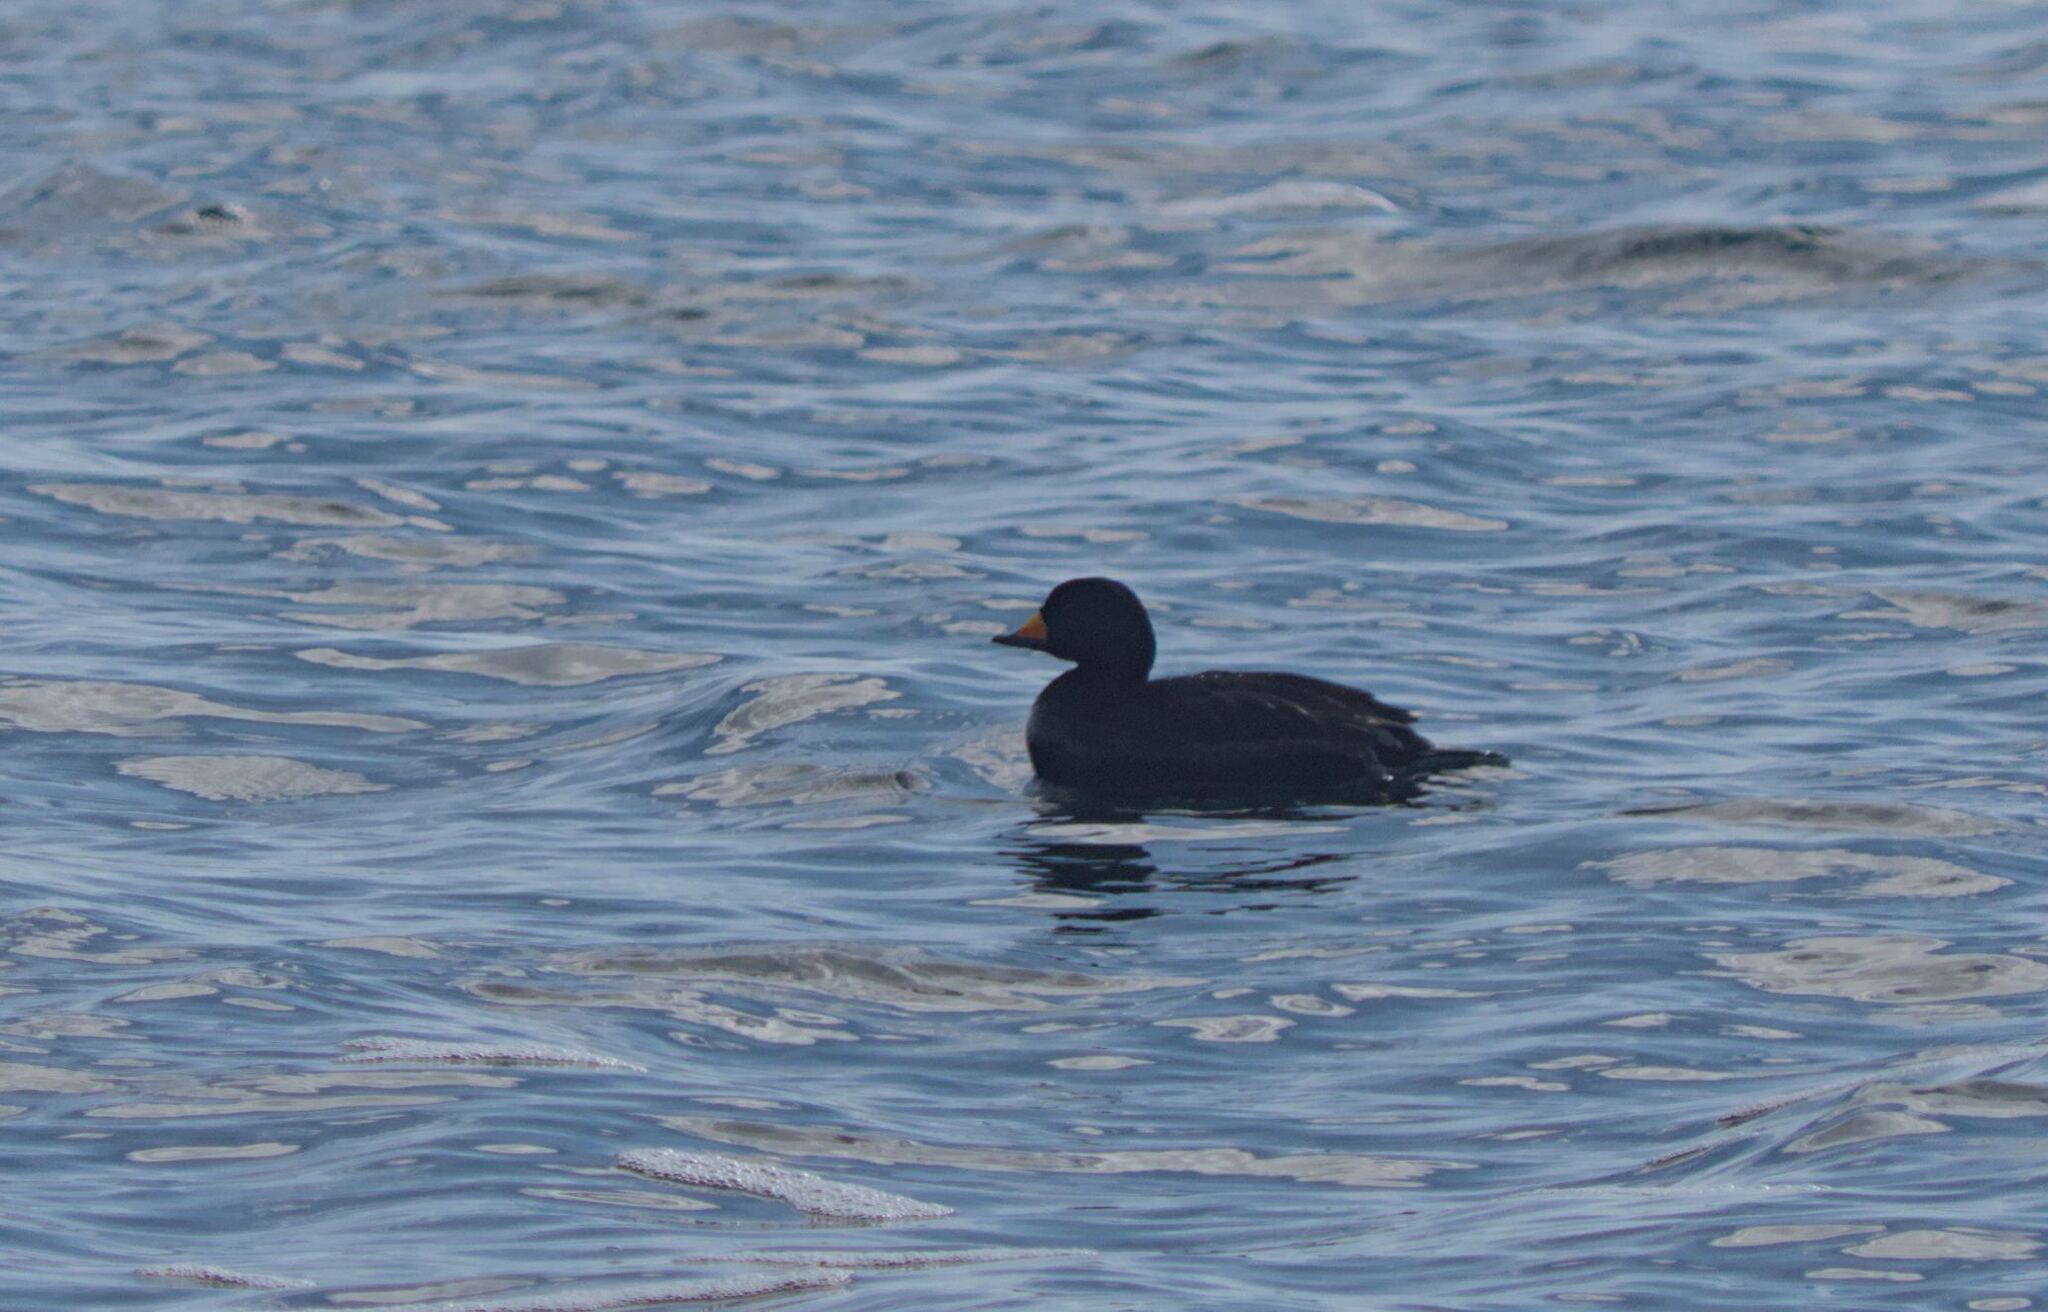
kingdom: Animalia
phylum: Chordata
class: Aves
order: Anseriformes
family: Anatidae
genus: Melanitta
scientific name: Melanitta americana
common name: Black scoter
